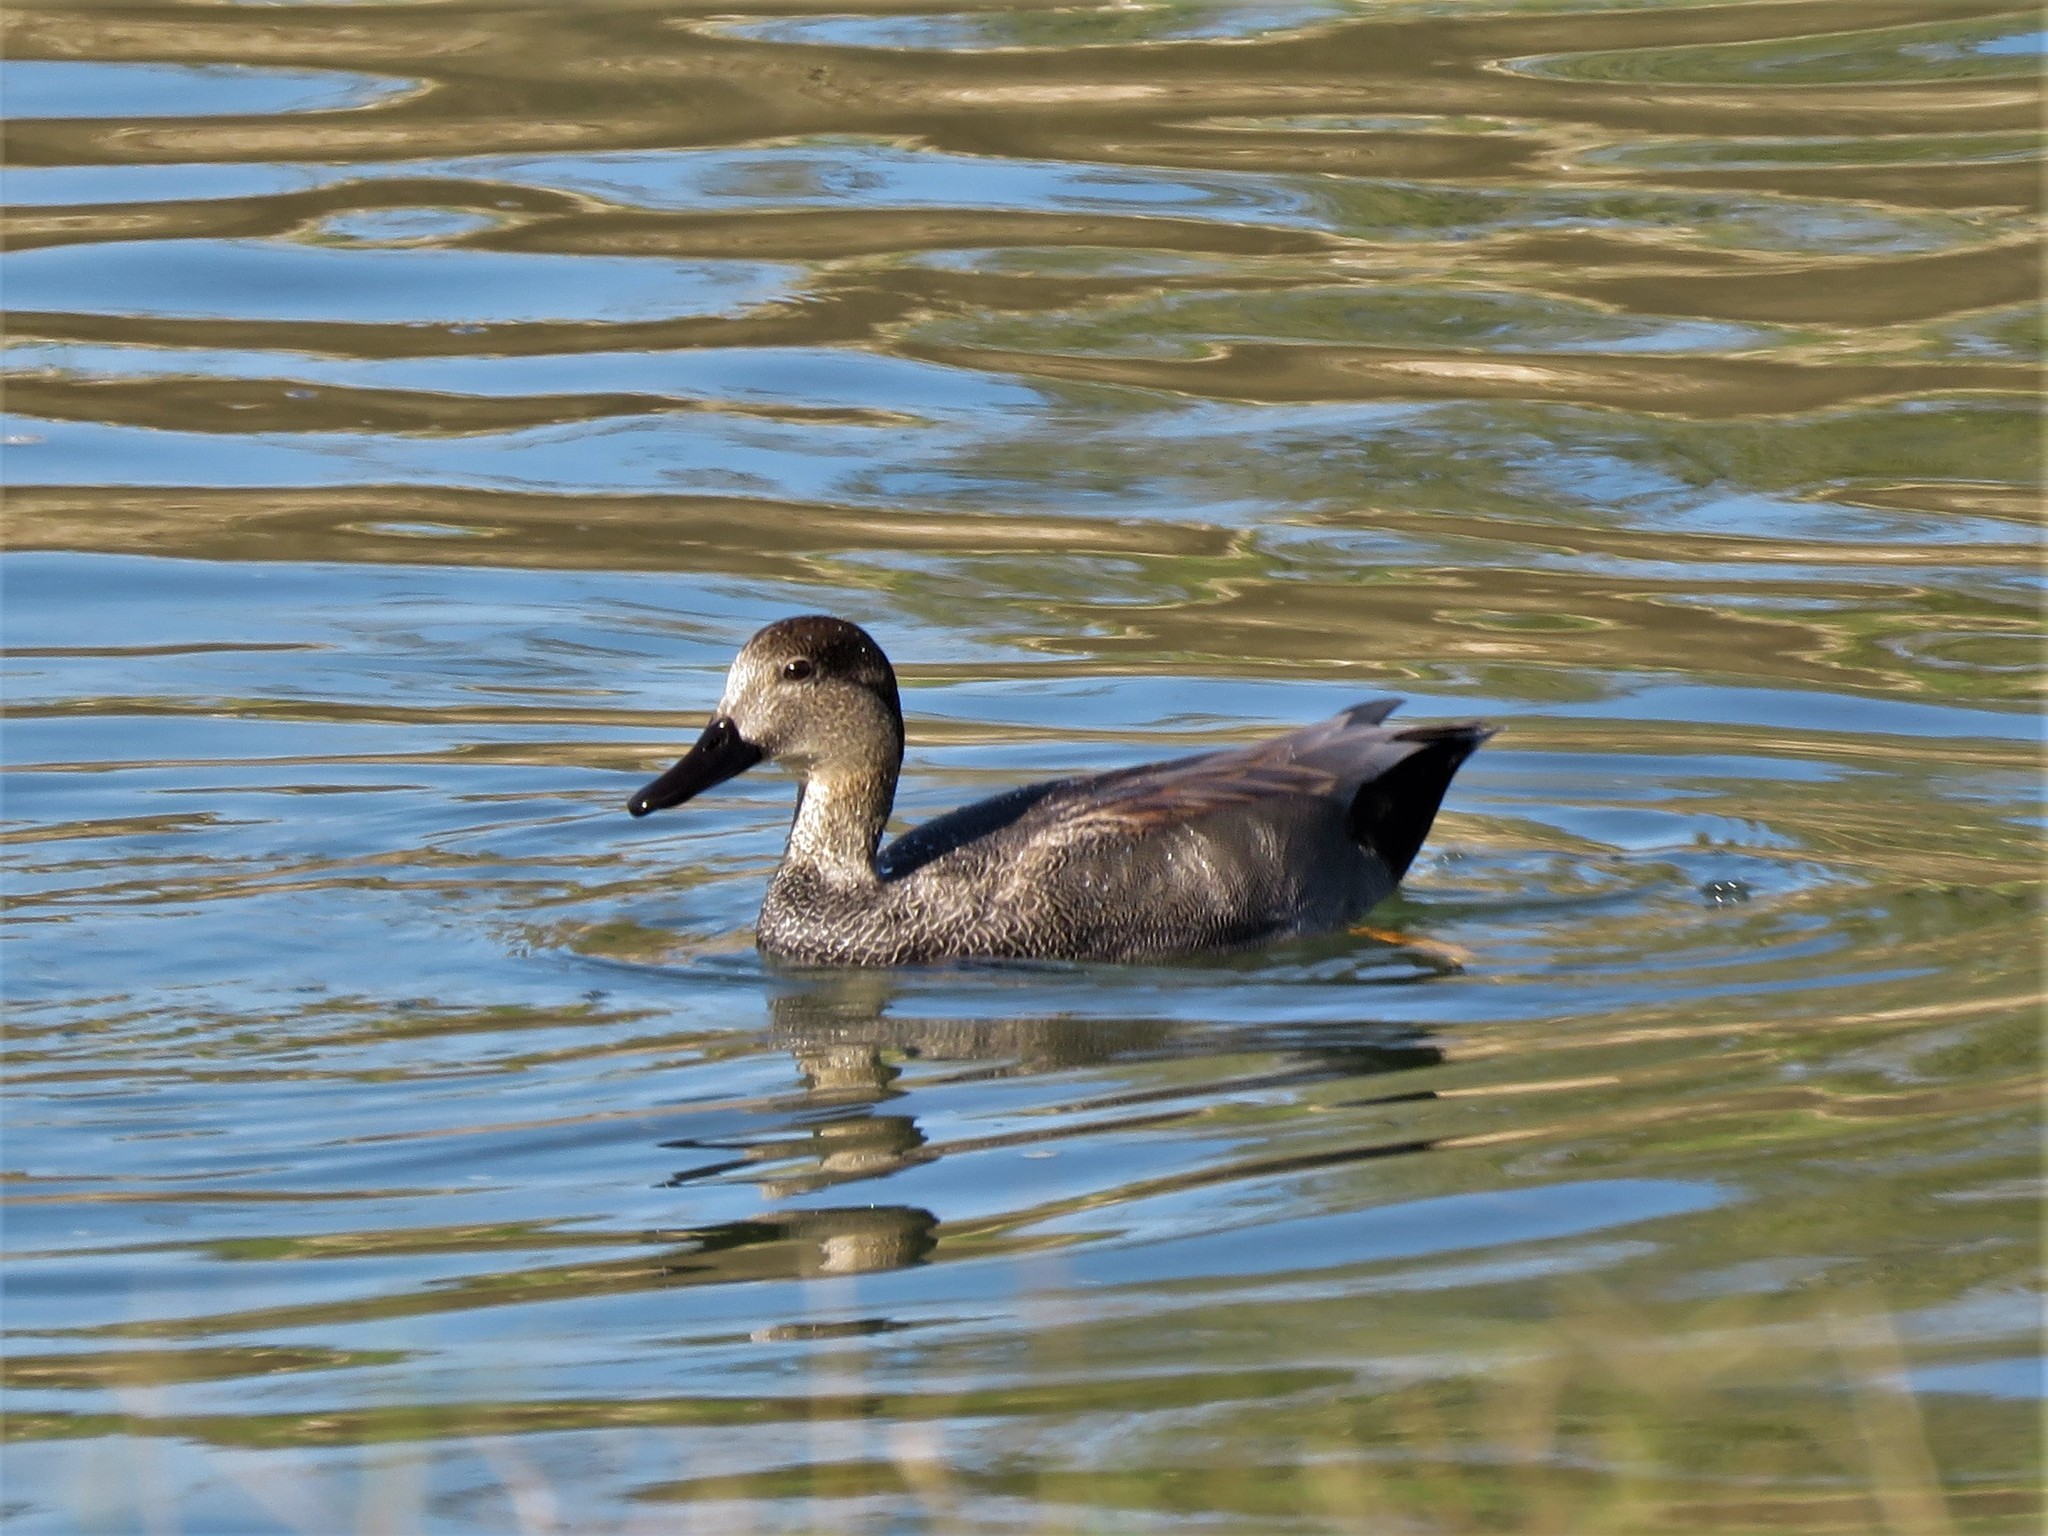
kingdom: Animalia
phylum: Chordata
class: Aves
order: Anseriformes
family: Anatidae
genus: Mareca
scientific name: Mareca strepera
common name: Gadwall
